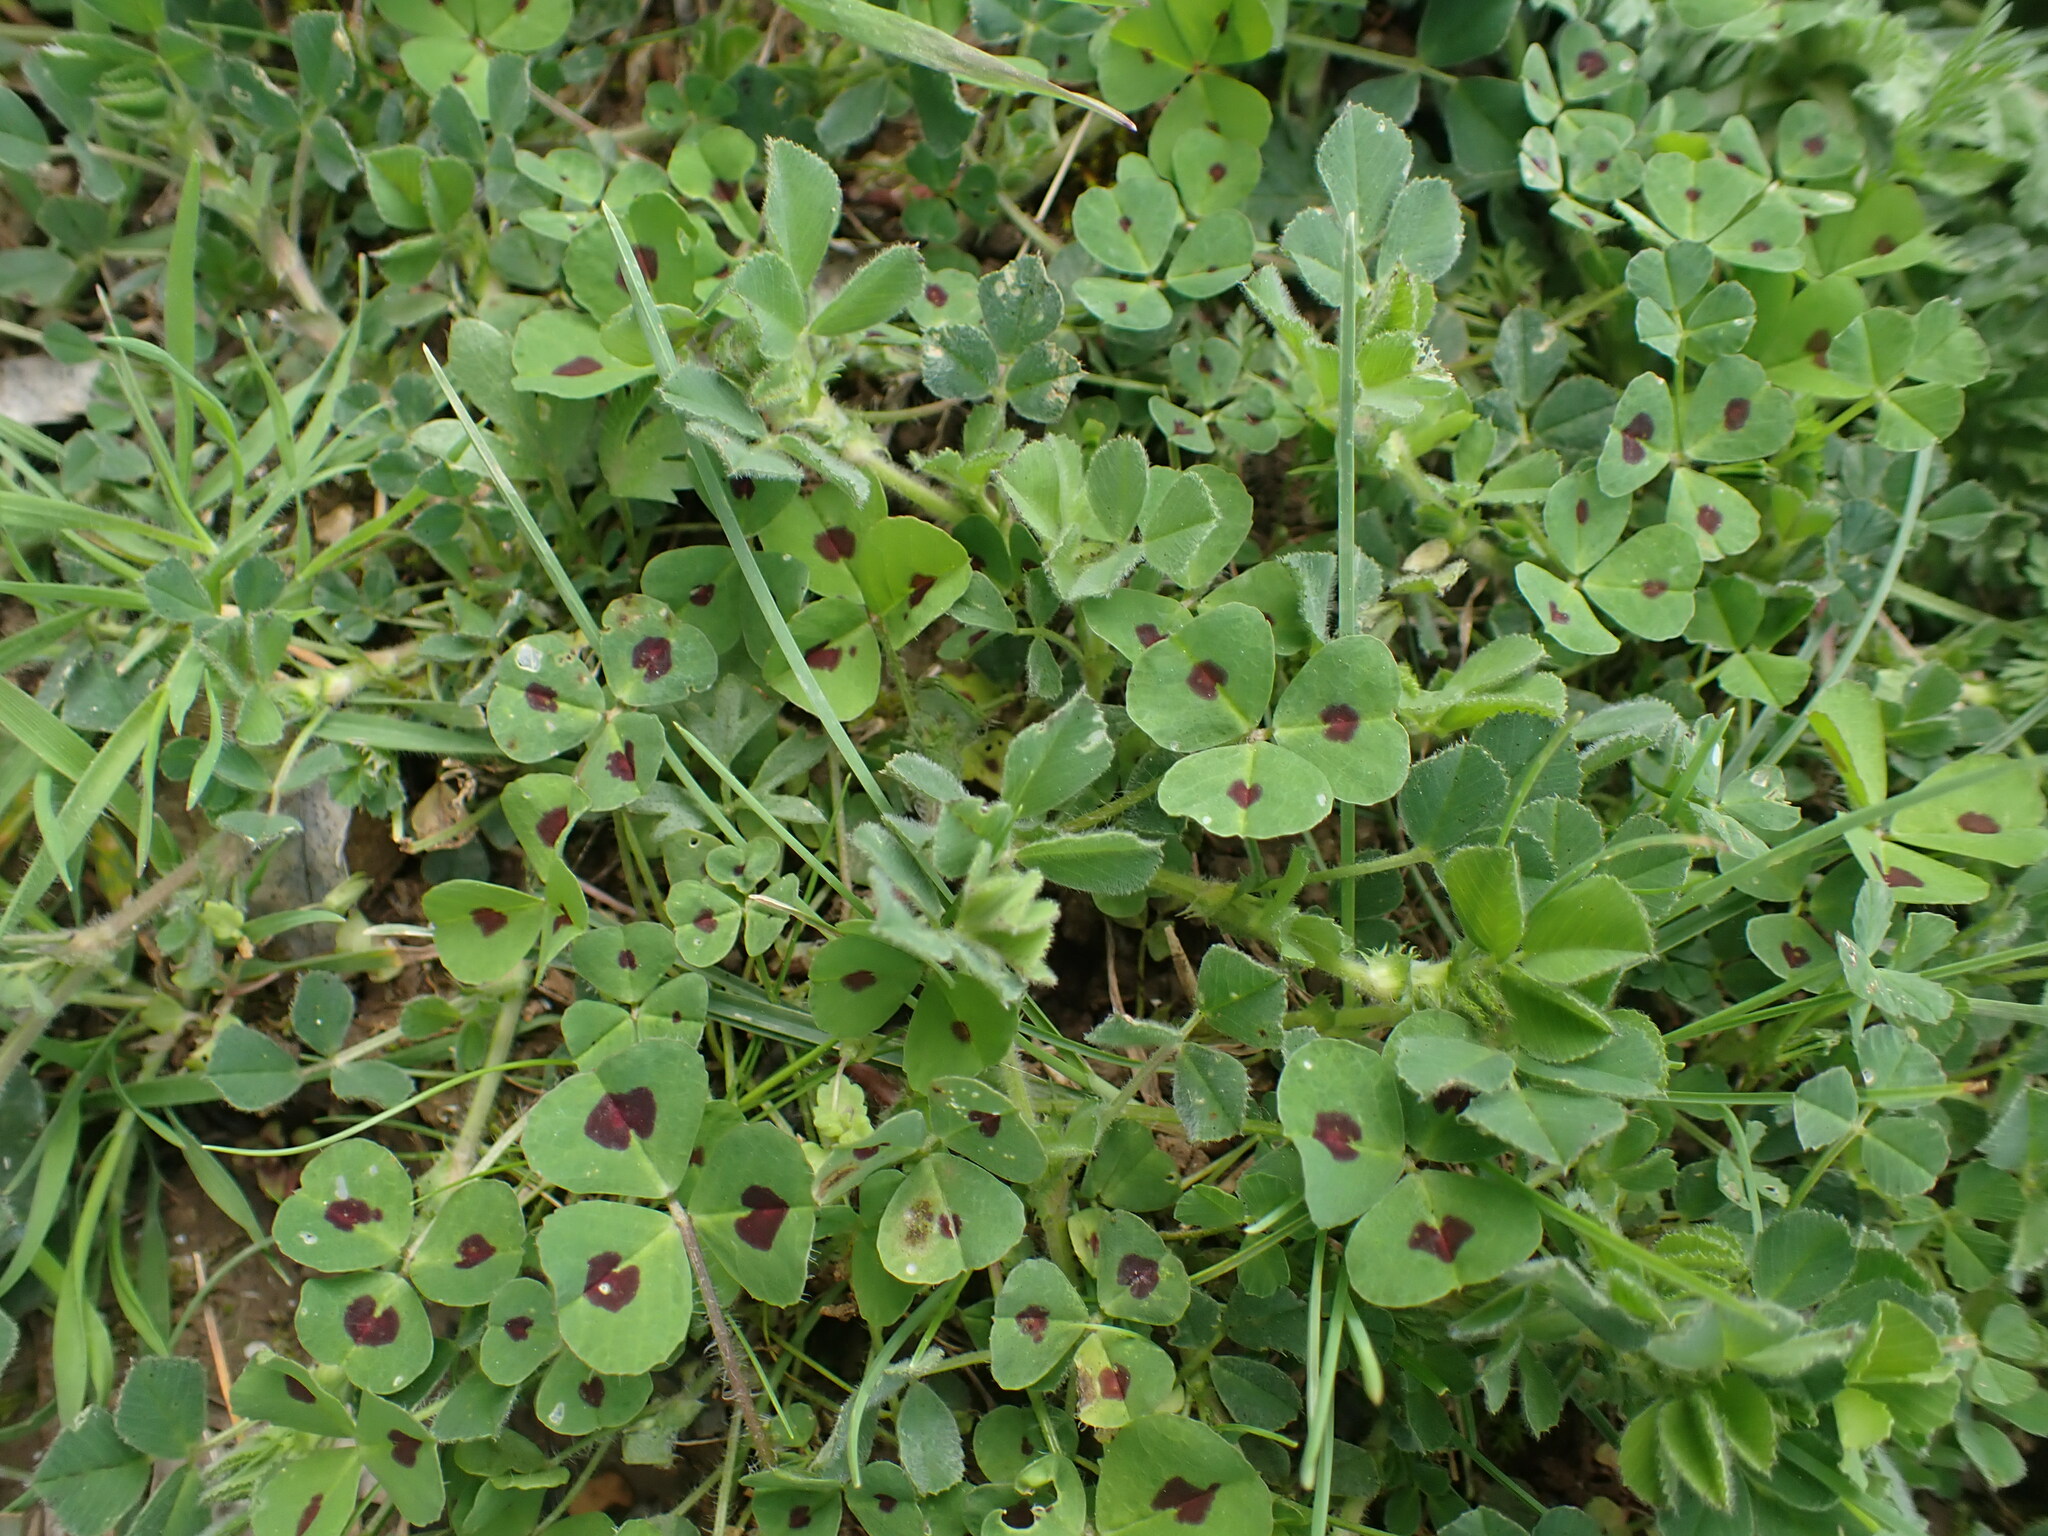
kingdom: Plantae
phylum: Tracheophyta
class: Magnoliopsida
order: Fabales
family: Fabaceae
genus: Medicago
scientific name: Medicago arabica
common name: Spotted medick
